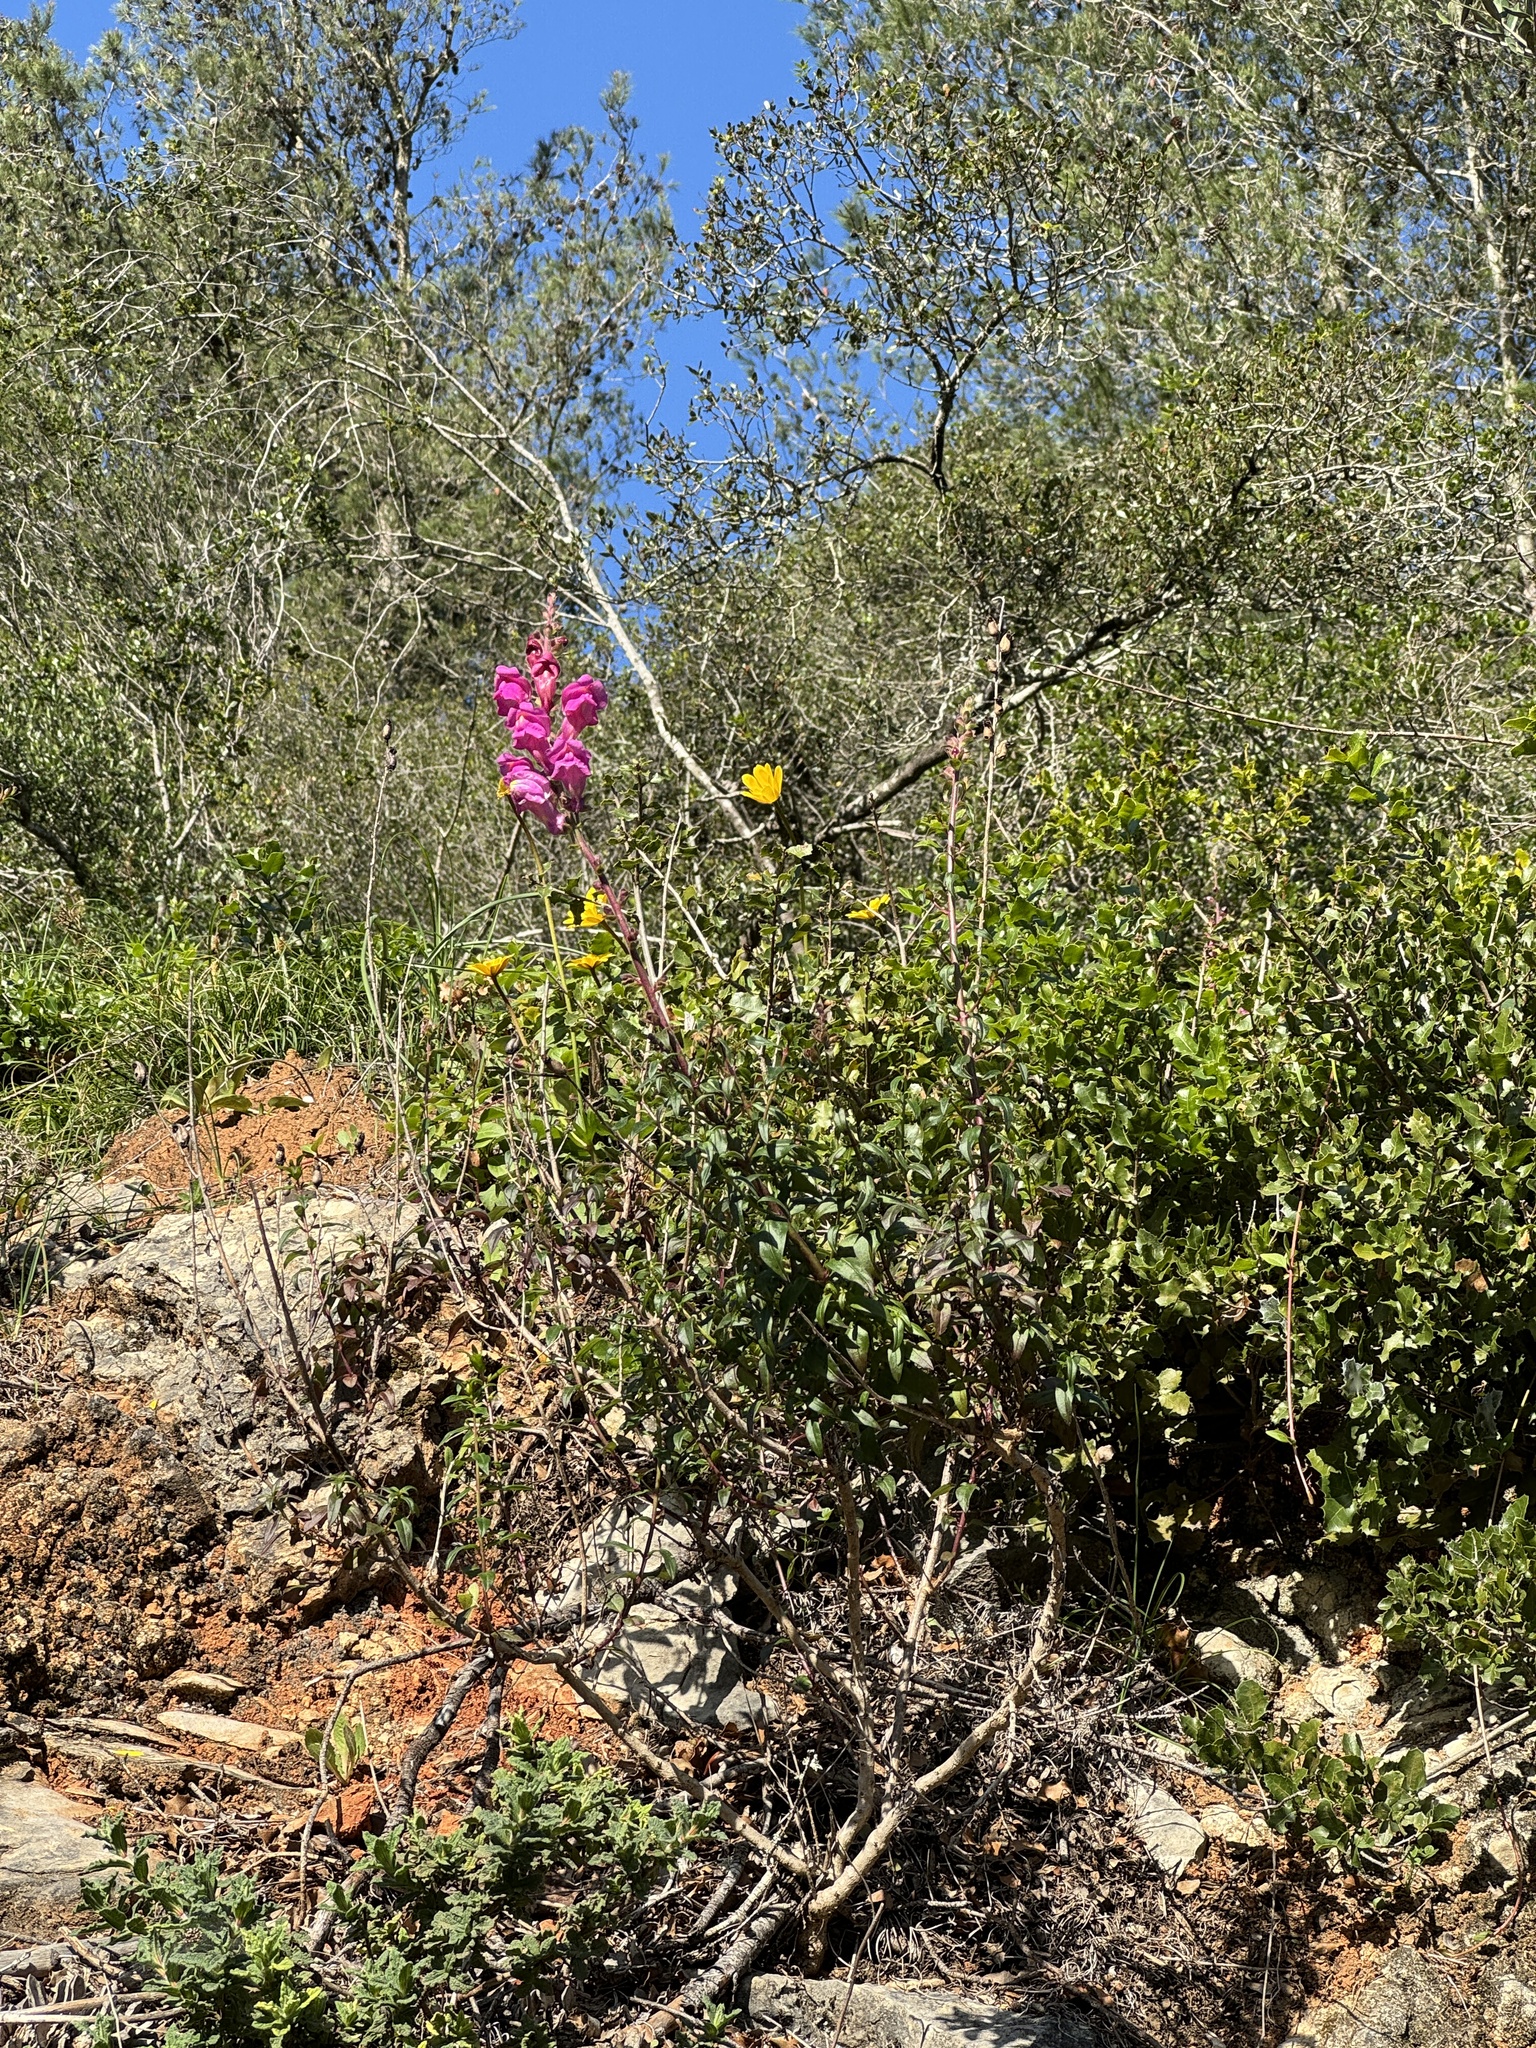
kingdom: Plantae
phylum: Tracheophyta
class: Magnoliopsida
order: Lamiales
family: Plantaginaceae
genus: Antirrhinum
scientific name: Antirrhinum linkianum
